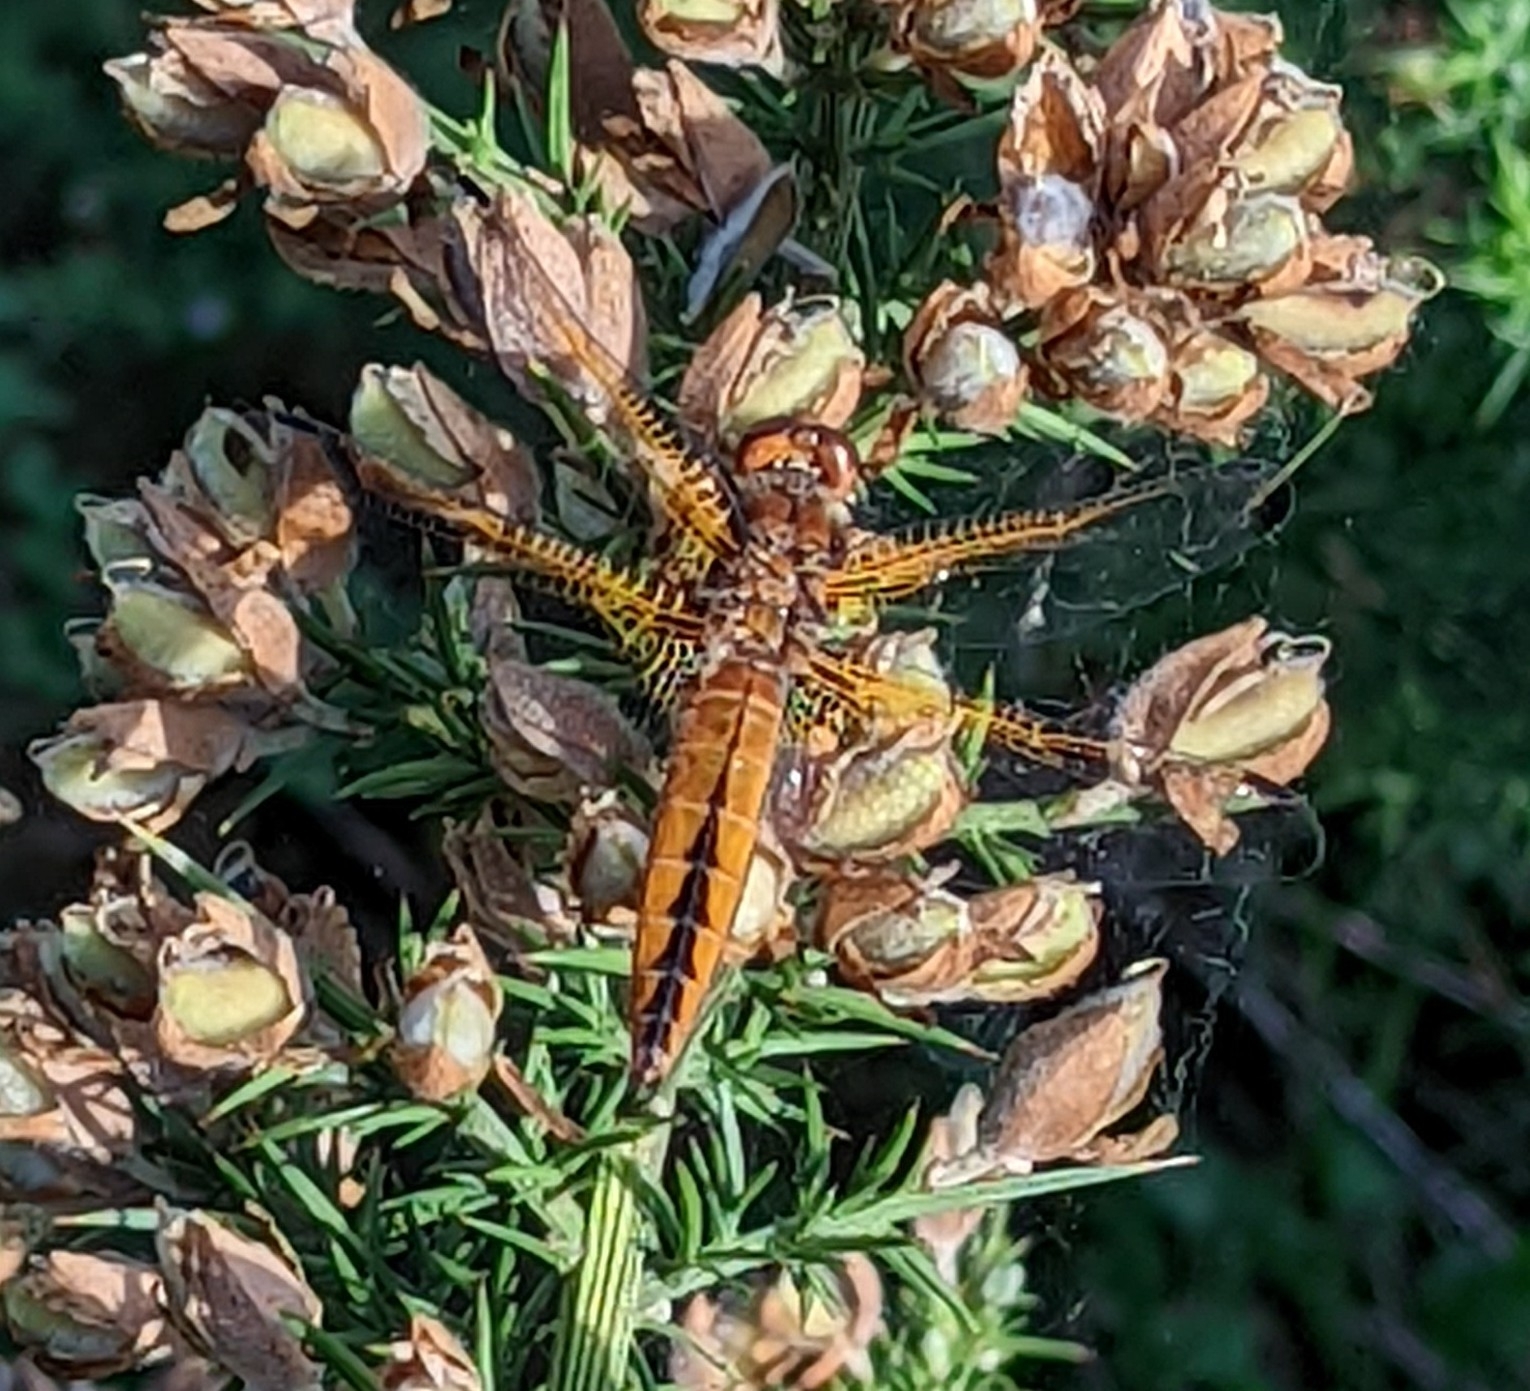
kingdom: Animalia
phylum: Arthropoda
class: Insecta
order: Odonata
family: Libellulidae
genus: Libellula
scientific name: Libellula fulva
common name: Blue chaser
